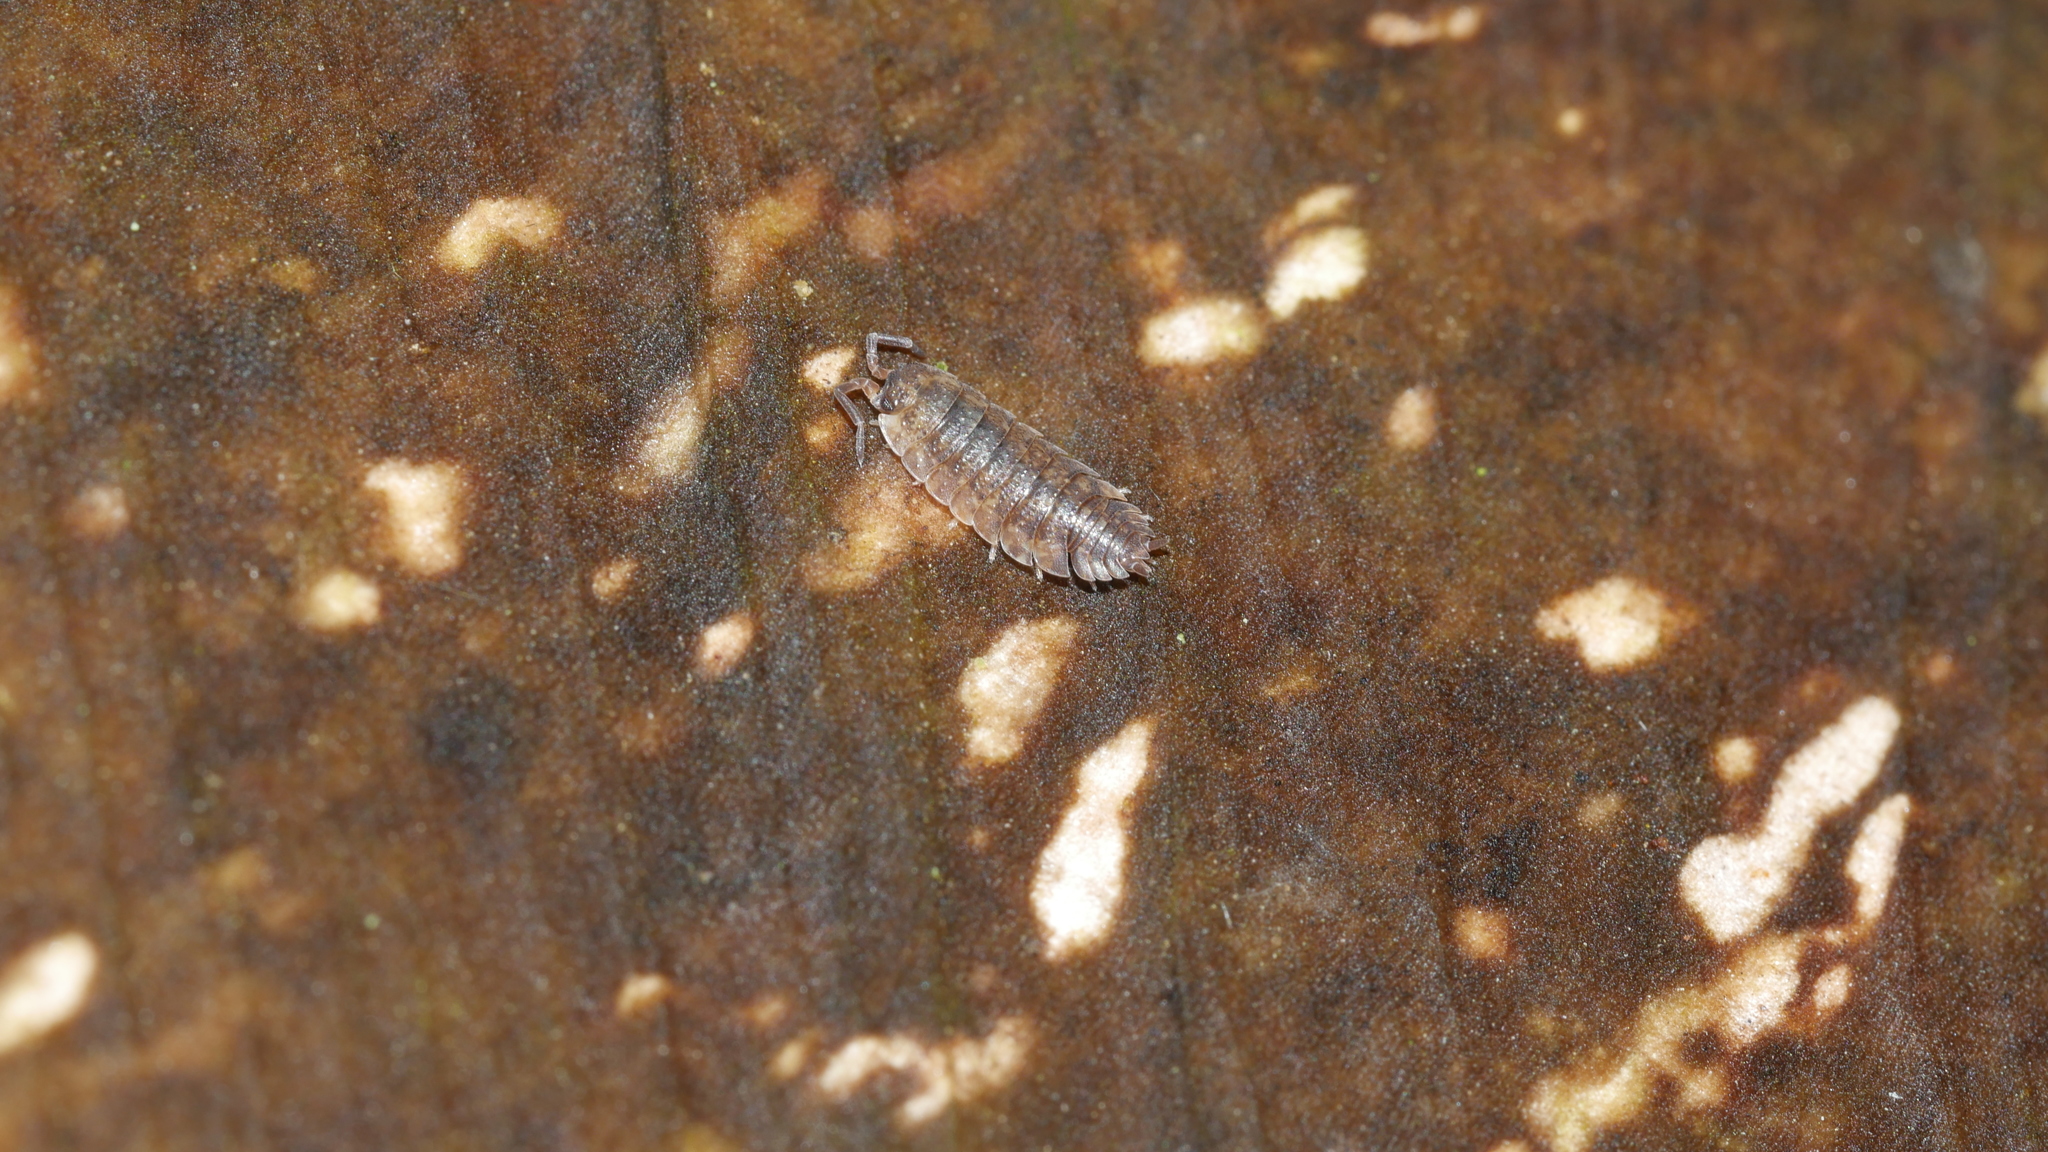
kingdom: Animalia
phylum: Arthropoda
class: Malacostraca
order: Isopoda
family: Porcellionidae
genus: Porcellio
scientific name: Porcellio scaber
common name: Common rough woodlouse
